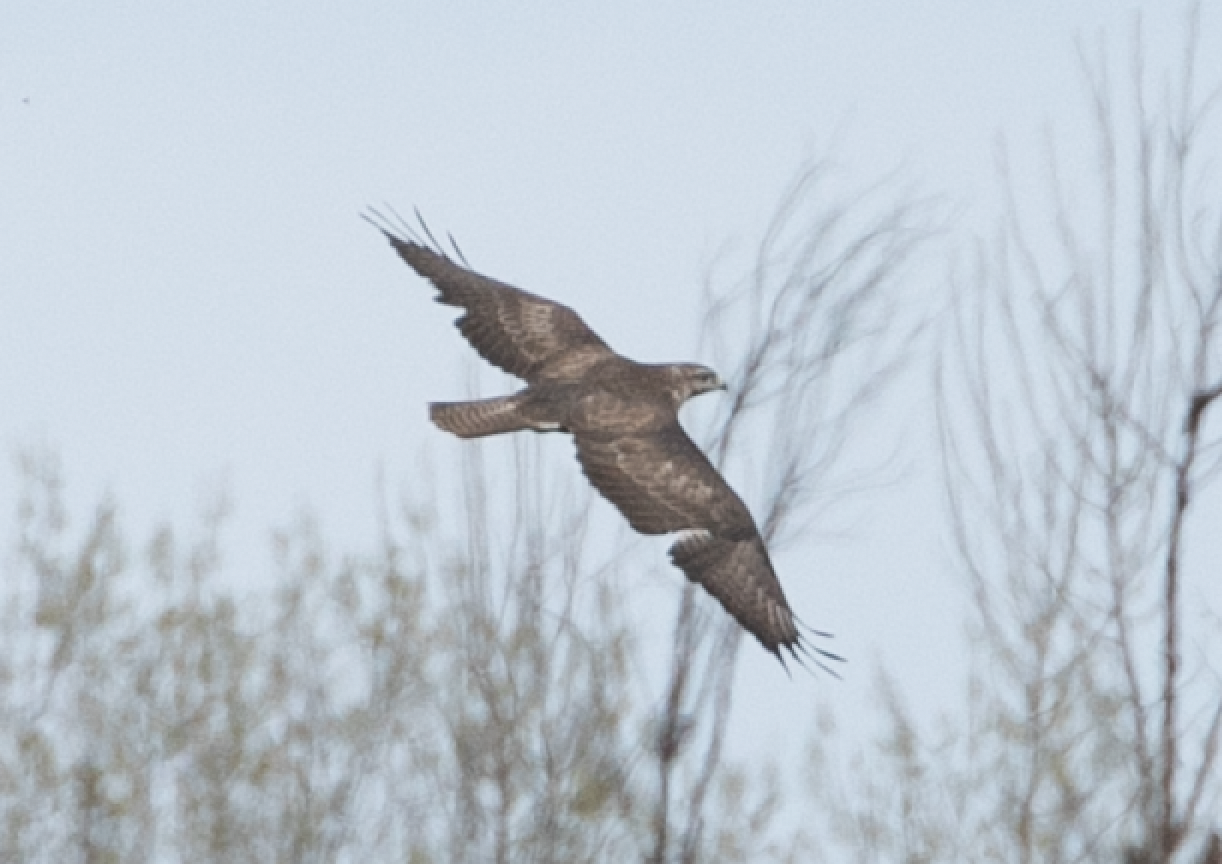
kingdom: Animalia
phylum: Chordata
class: Aves
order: Accipitriformes
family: Accipitridae
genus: Buteo
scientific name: Buteo buteo
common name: Common buzzard
